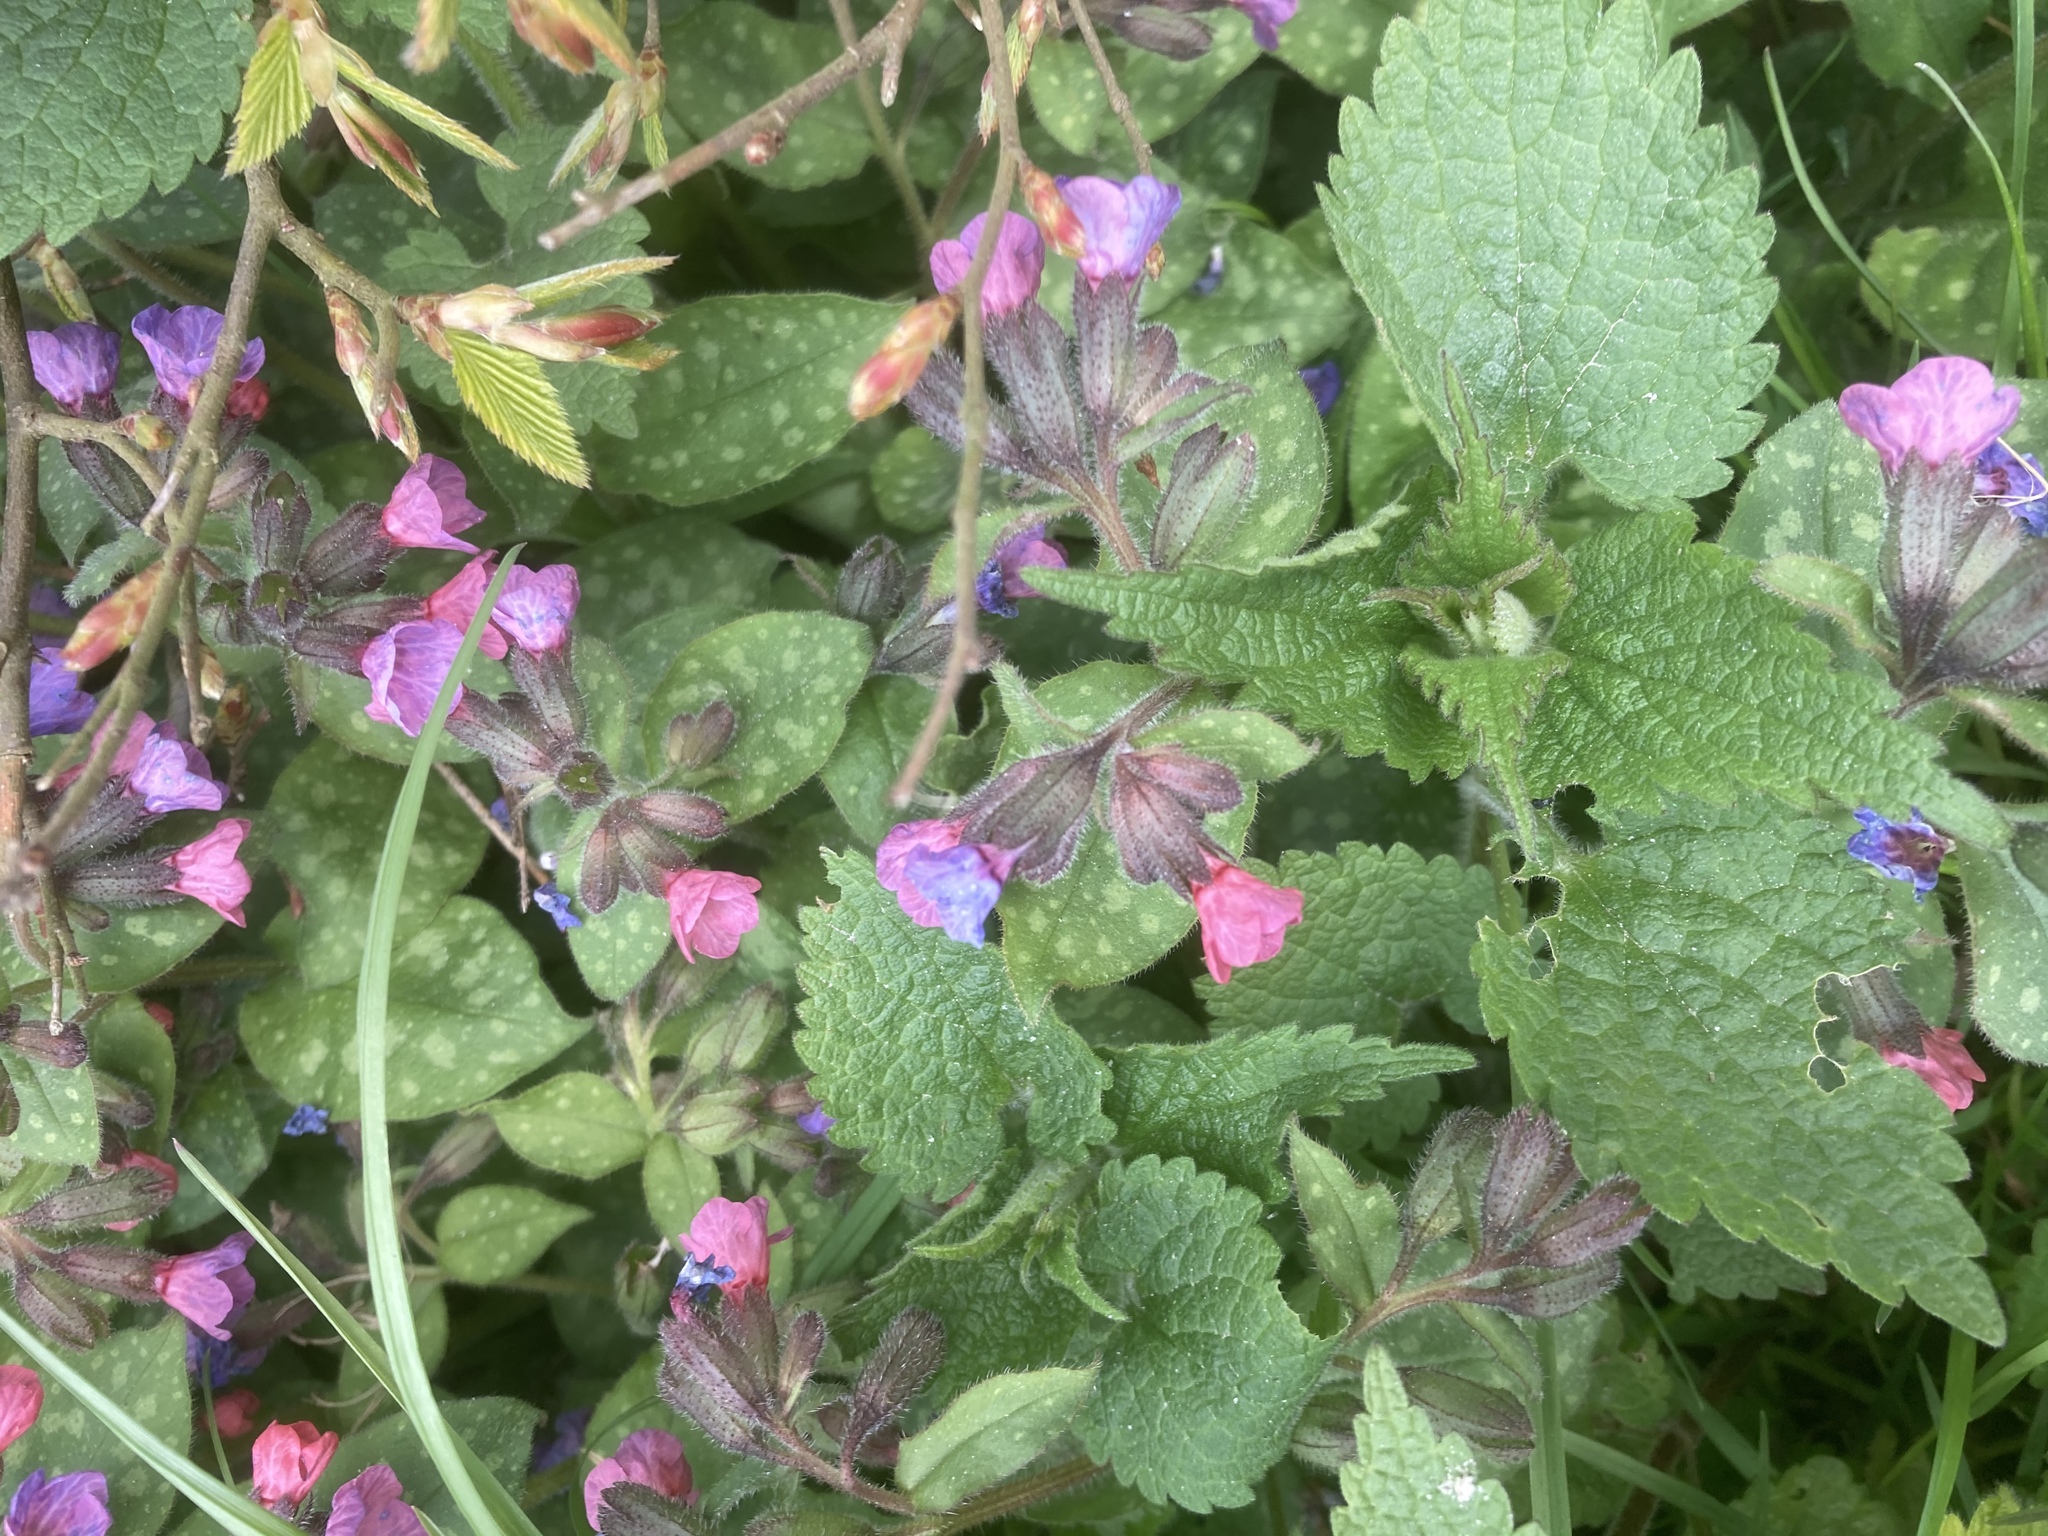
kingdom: Plantae
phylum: Tracheophyta
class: Magnoliopsida
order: Boraginales
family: Boraginaceae
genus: Pulmonaria
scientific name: Pulmonaria officinalis
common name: Lungwort
